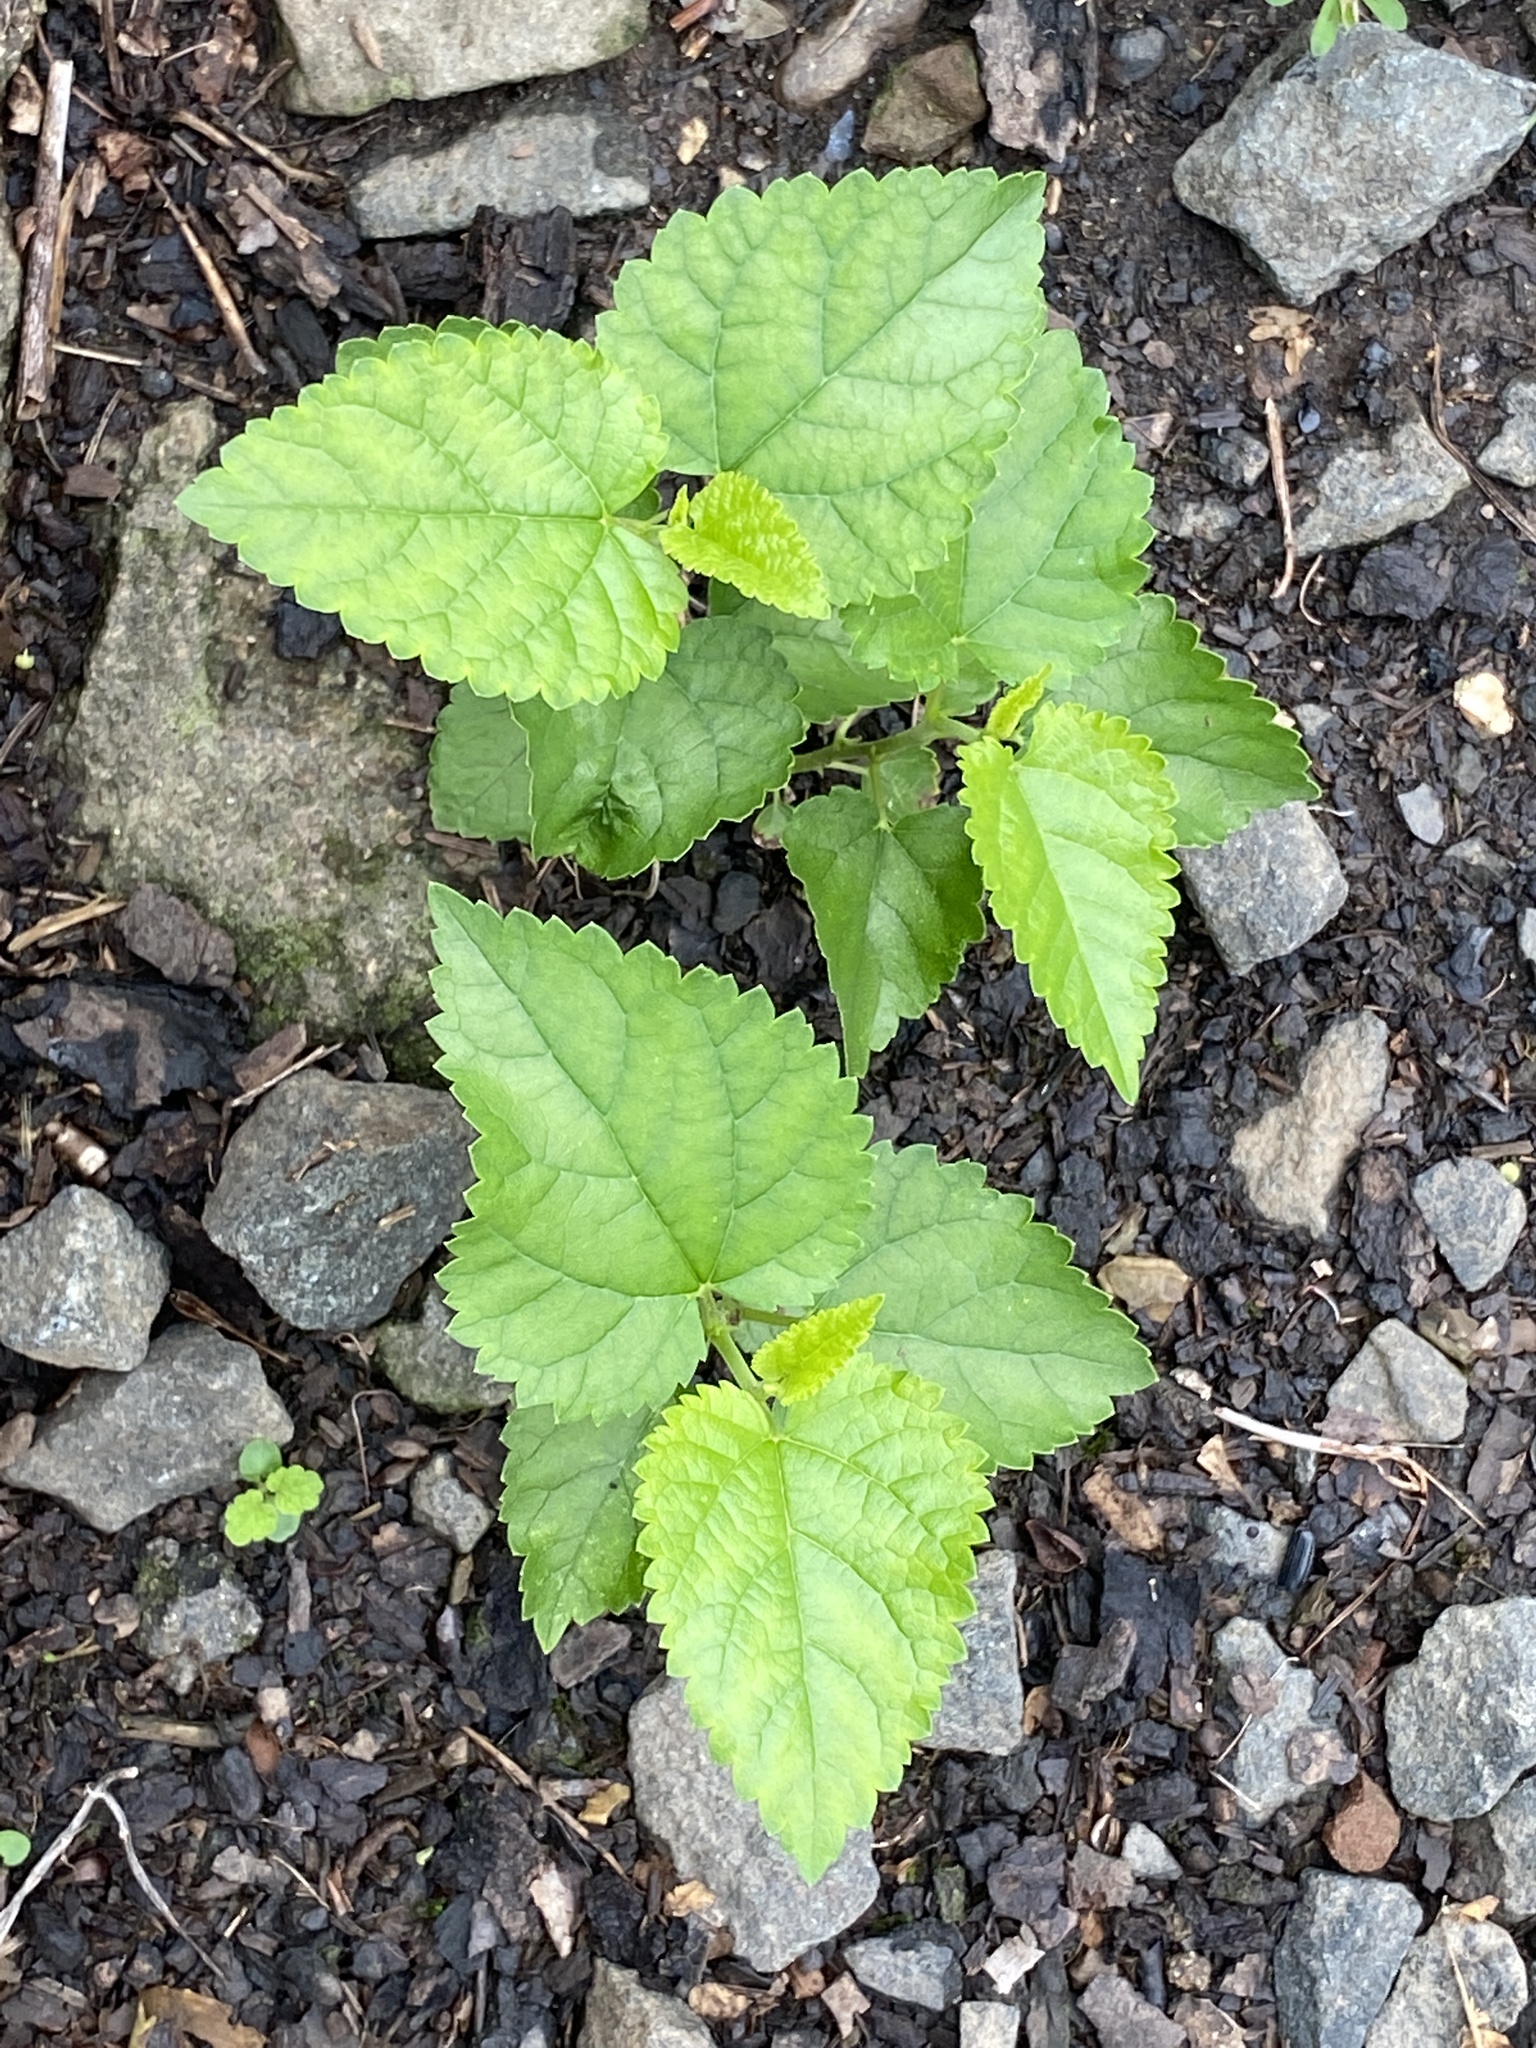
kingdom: Plantae
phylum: Tracheophyta
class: Magnoliopsida
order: Rosales
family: Moraceae
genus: Morus
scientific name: Morus alba
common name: White mulberry
